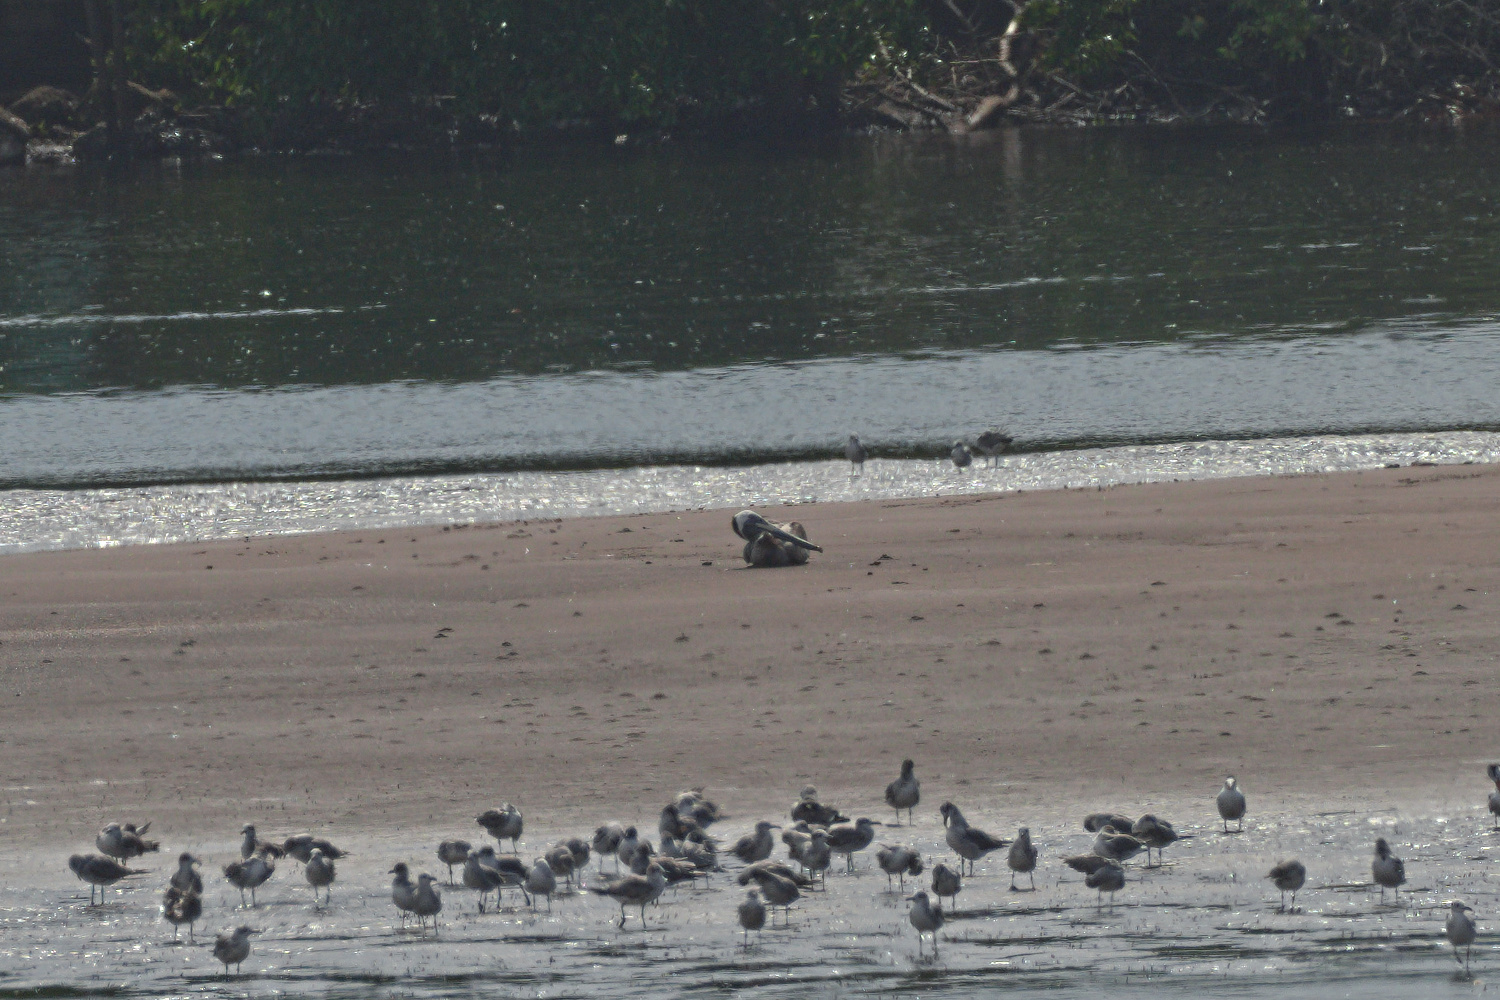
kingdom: Animalia
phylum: Chordata
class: Aves
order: Pelecaniformes
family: Pelecanidae
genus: Pelecanus
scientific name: Pelecanus occidentalis
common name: Brown pelican
